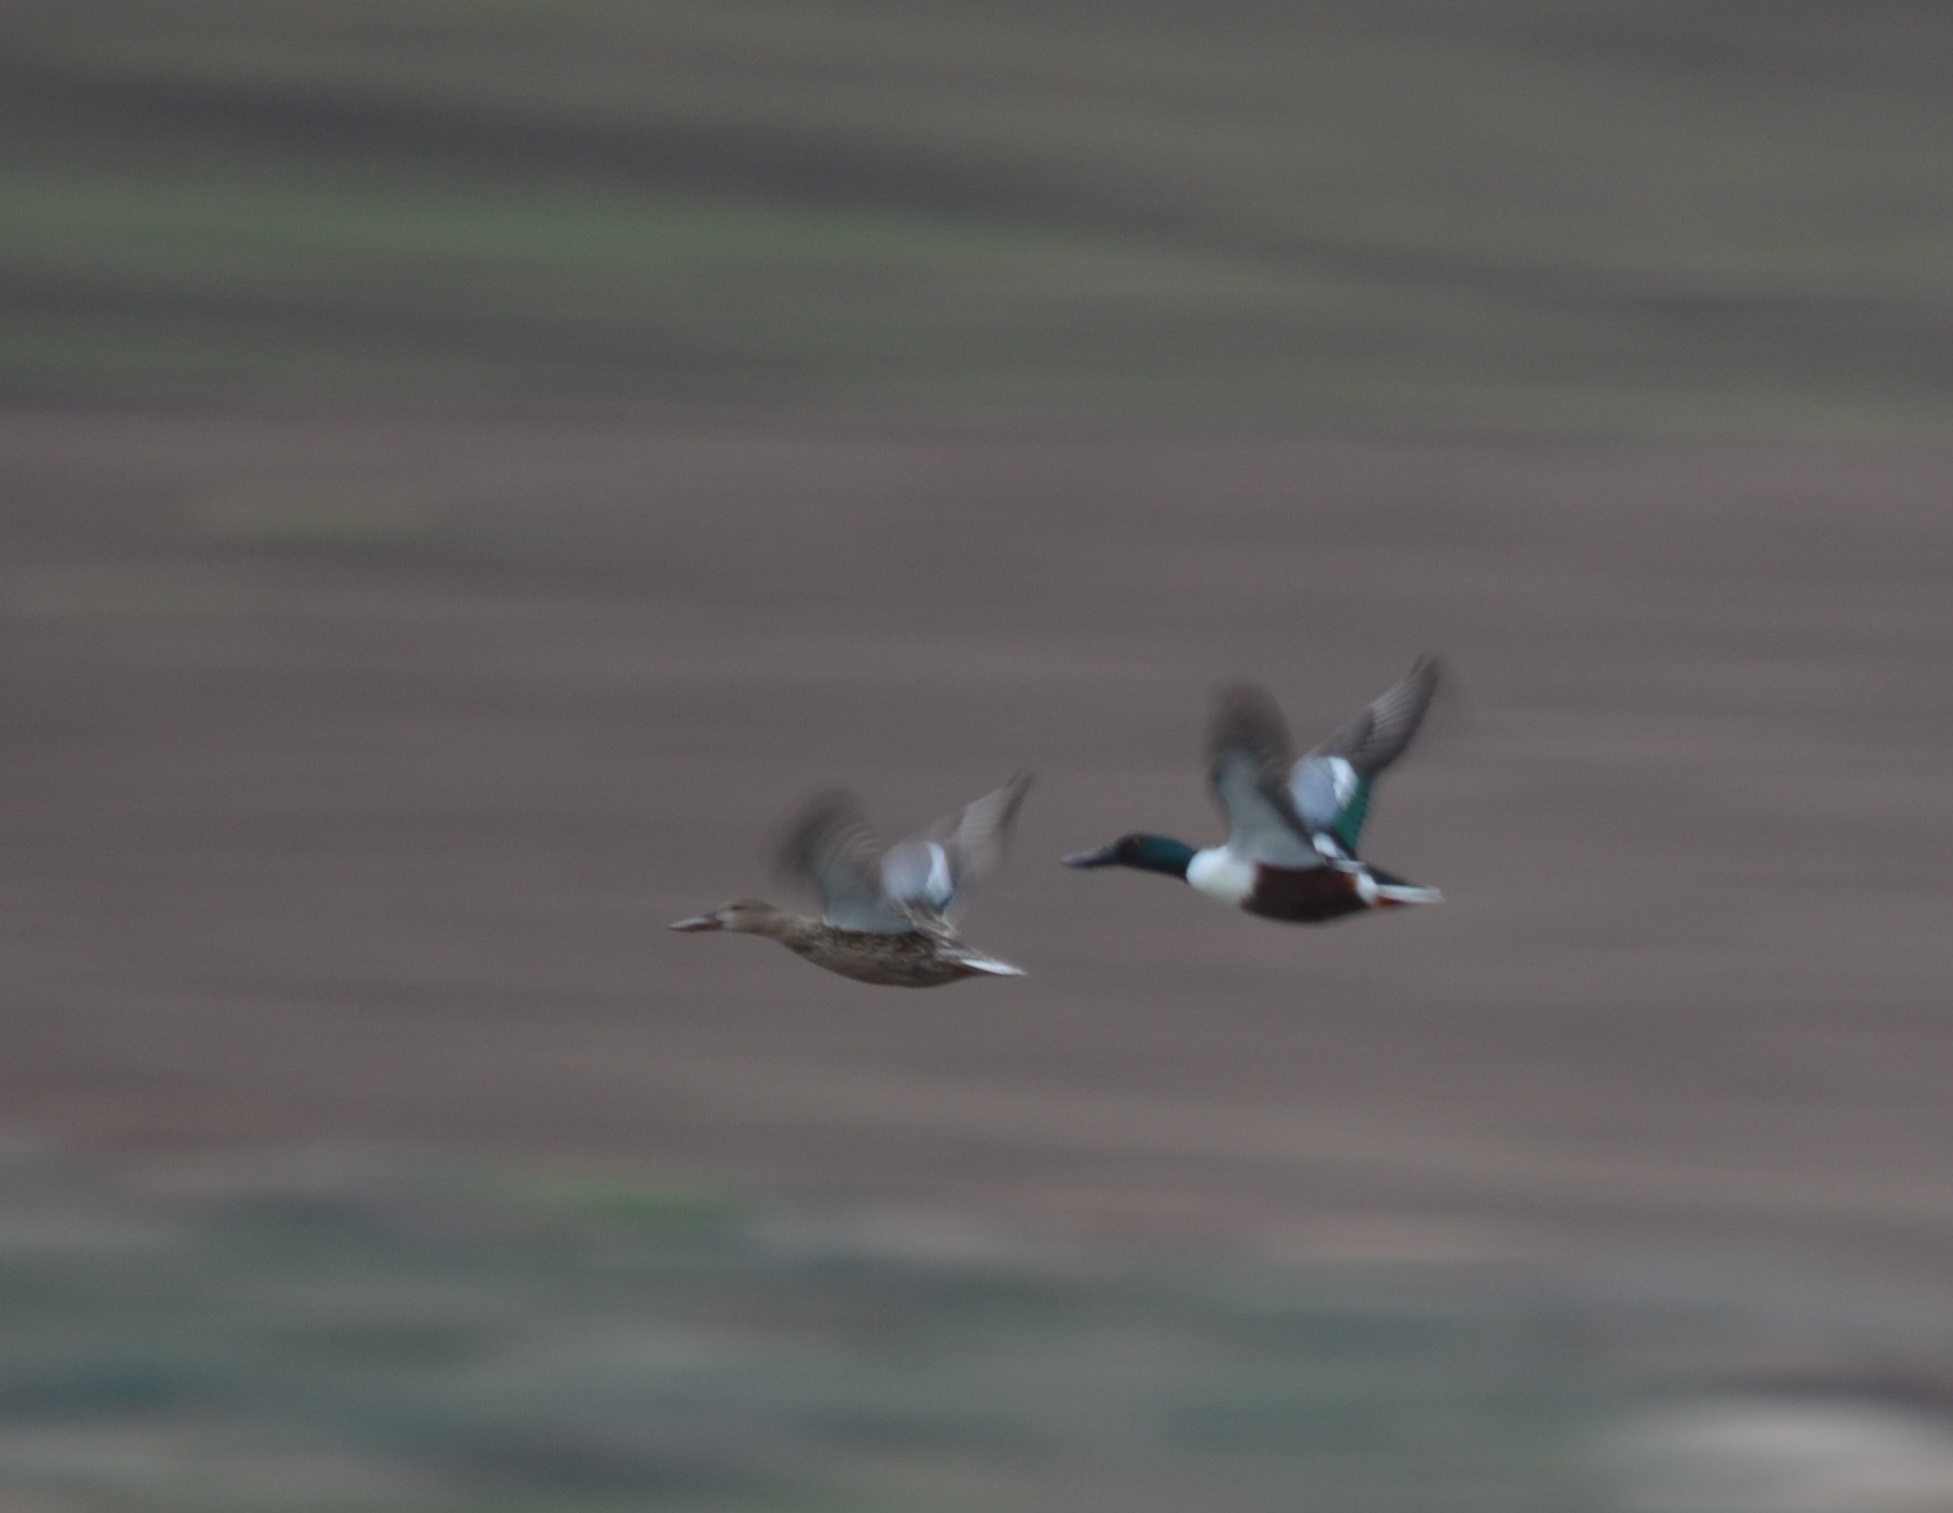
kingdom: Animalia
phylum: Chordata
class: Aves
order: Anseriformes
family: Anatidae
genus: Spatula
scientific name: Spatula clypeata
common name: Northern shoveler
